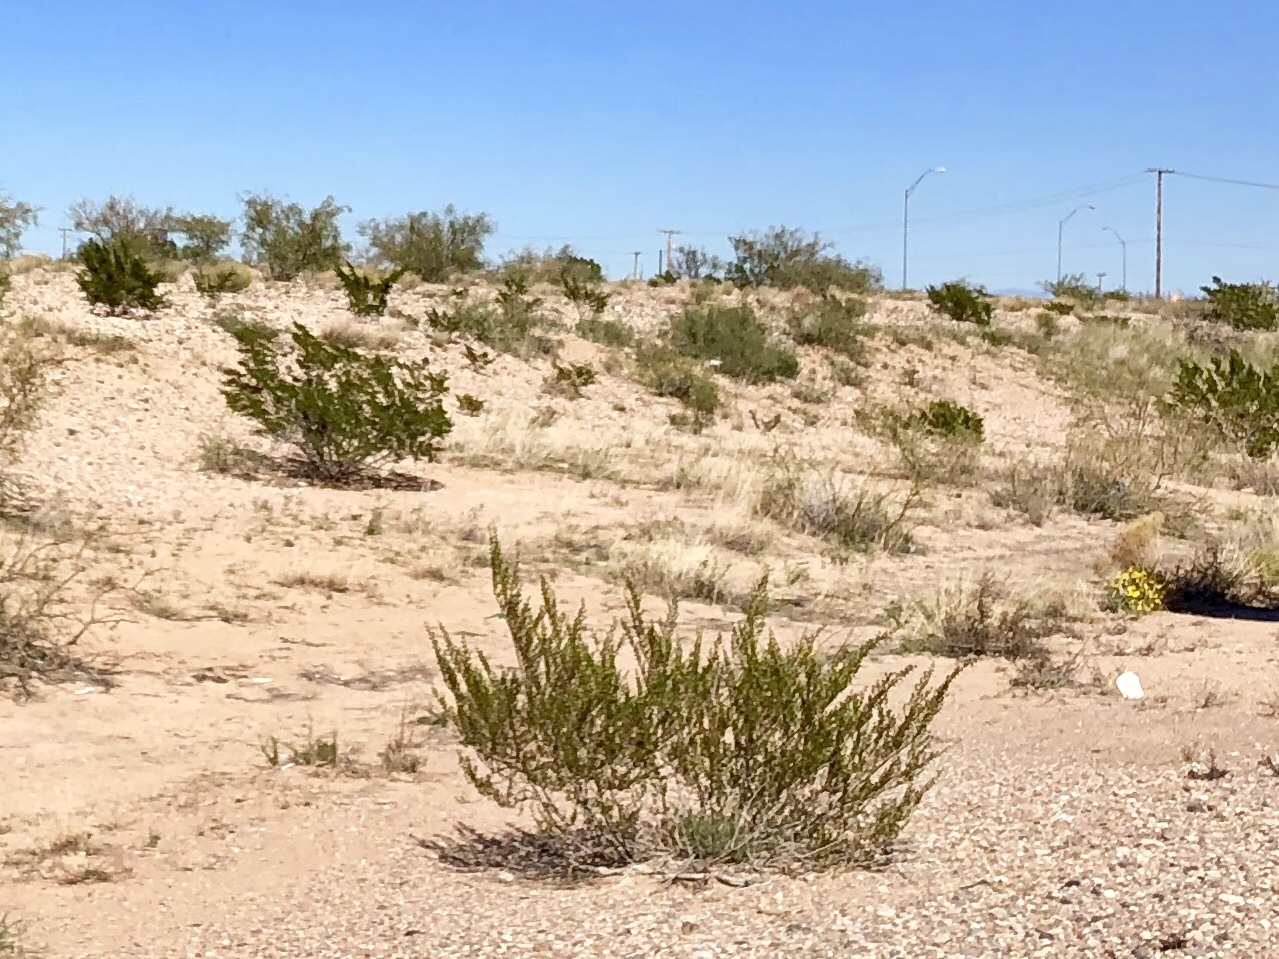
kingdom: Plantae
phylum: Tracheophyta
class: Magnoliopsida
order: Zygophyllales
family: Zygophyllaceae
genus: Larrea
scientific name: Larrea tridentata
